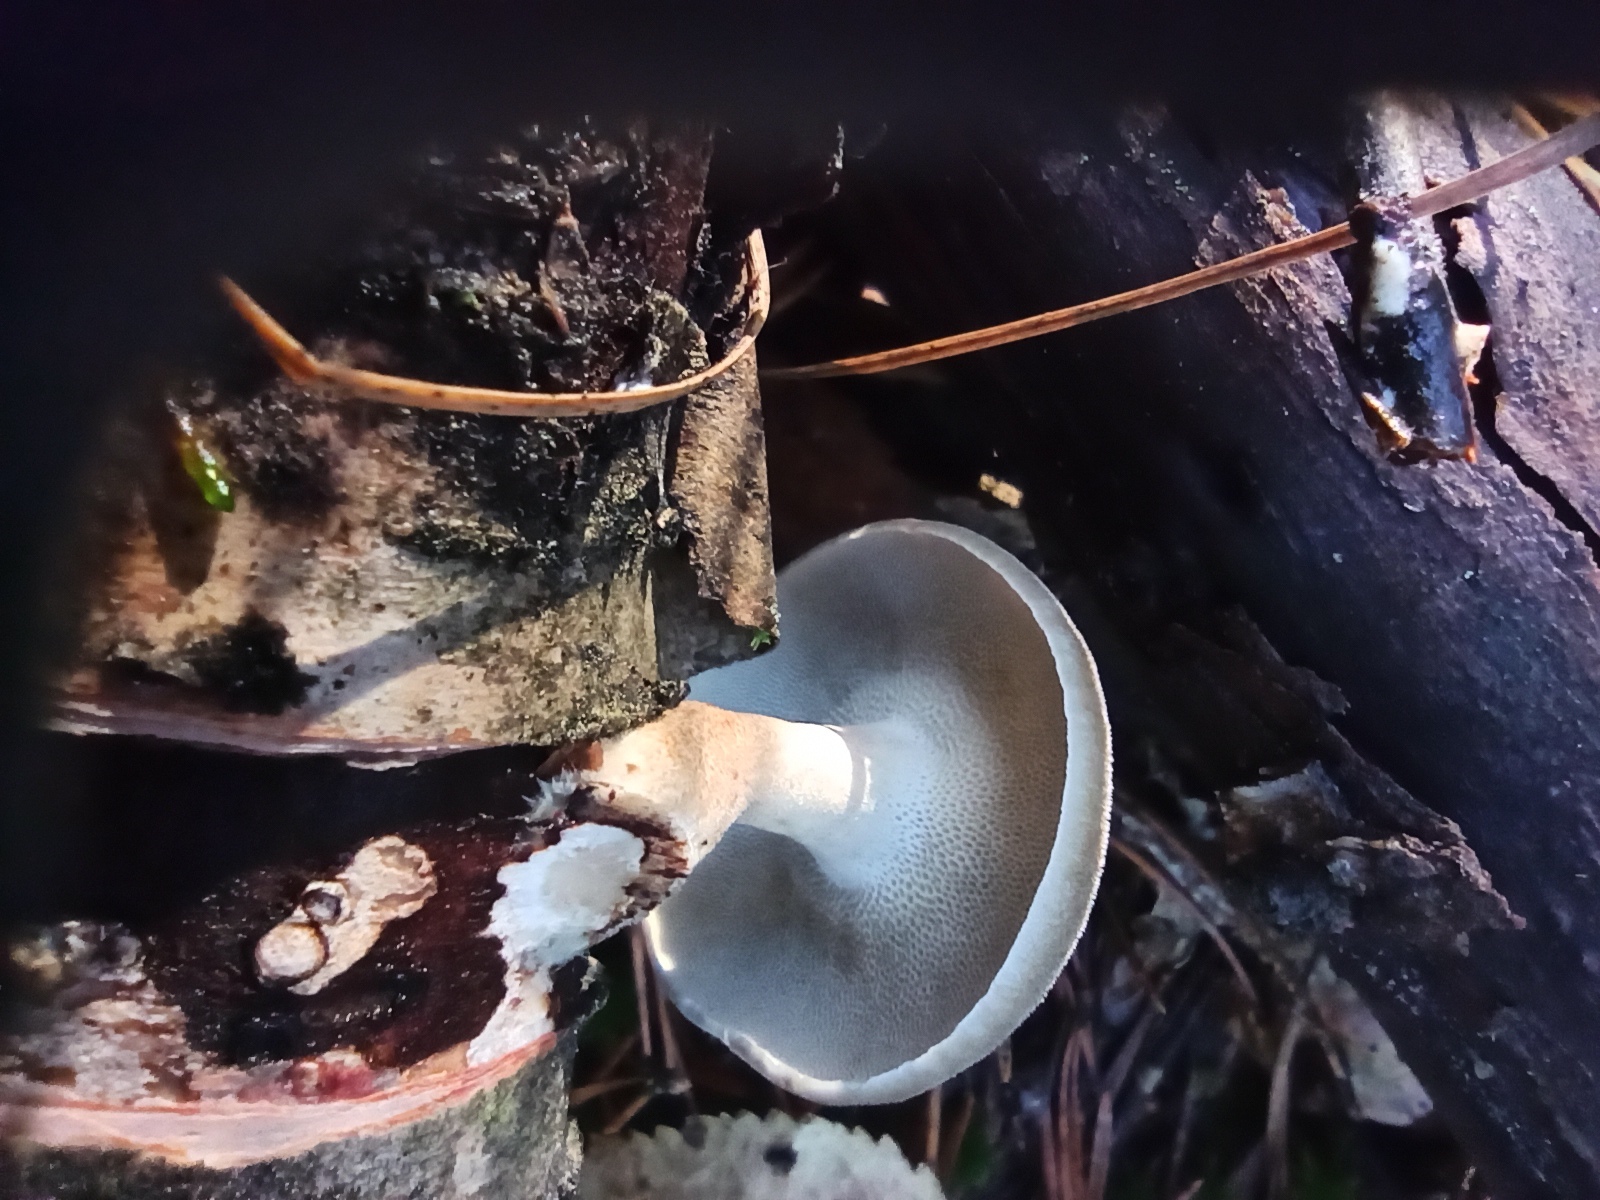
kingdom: Fungi
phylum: Basidiomycota
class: Agaricomycetes
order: Polyporales
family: Polyporaceae
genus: Lentinus
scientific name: Lentinus brumalis
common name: Winter polypore
